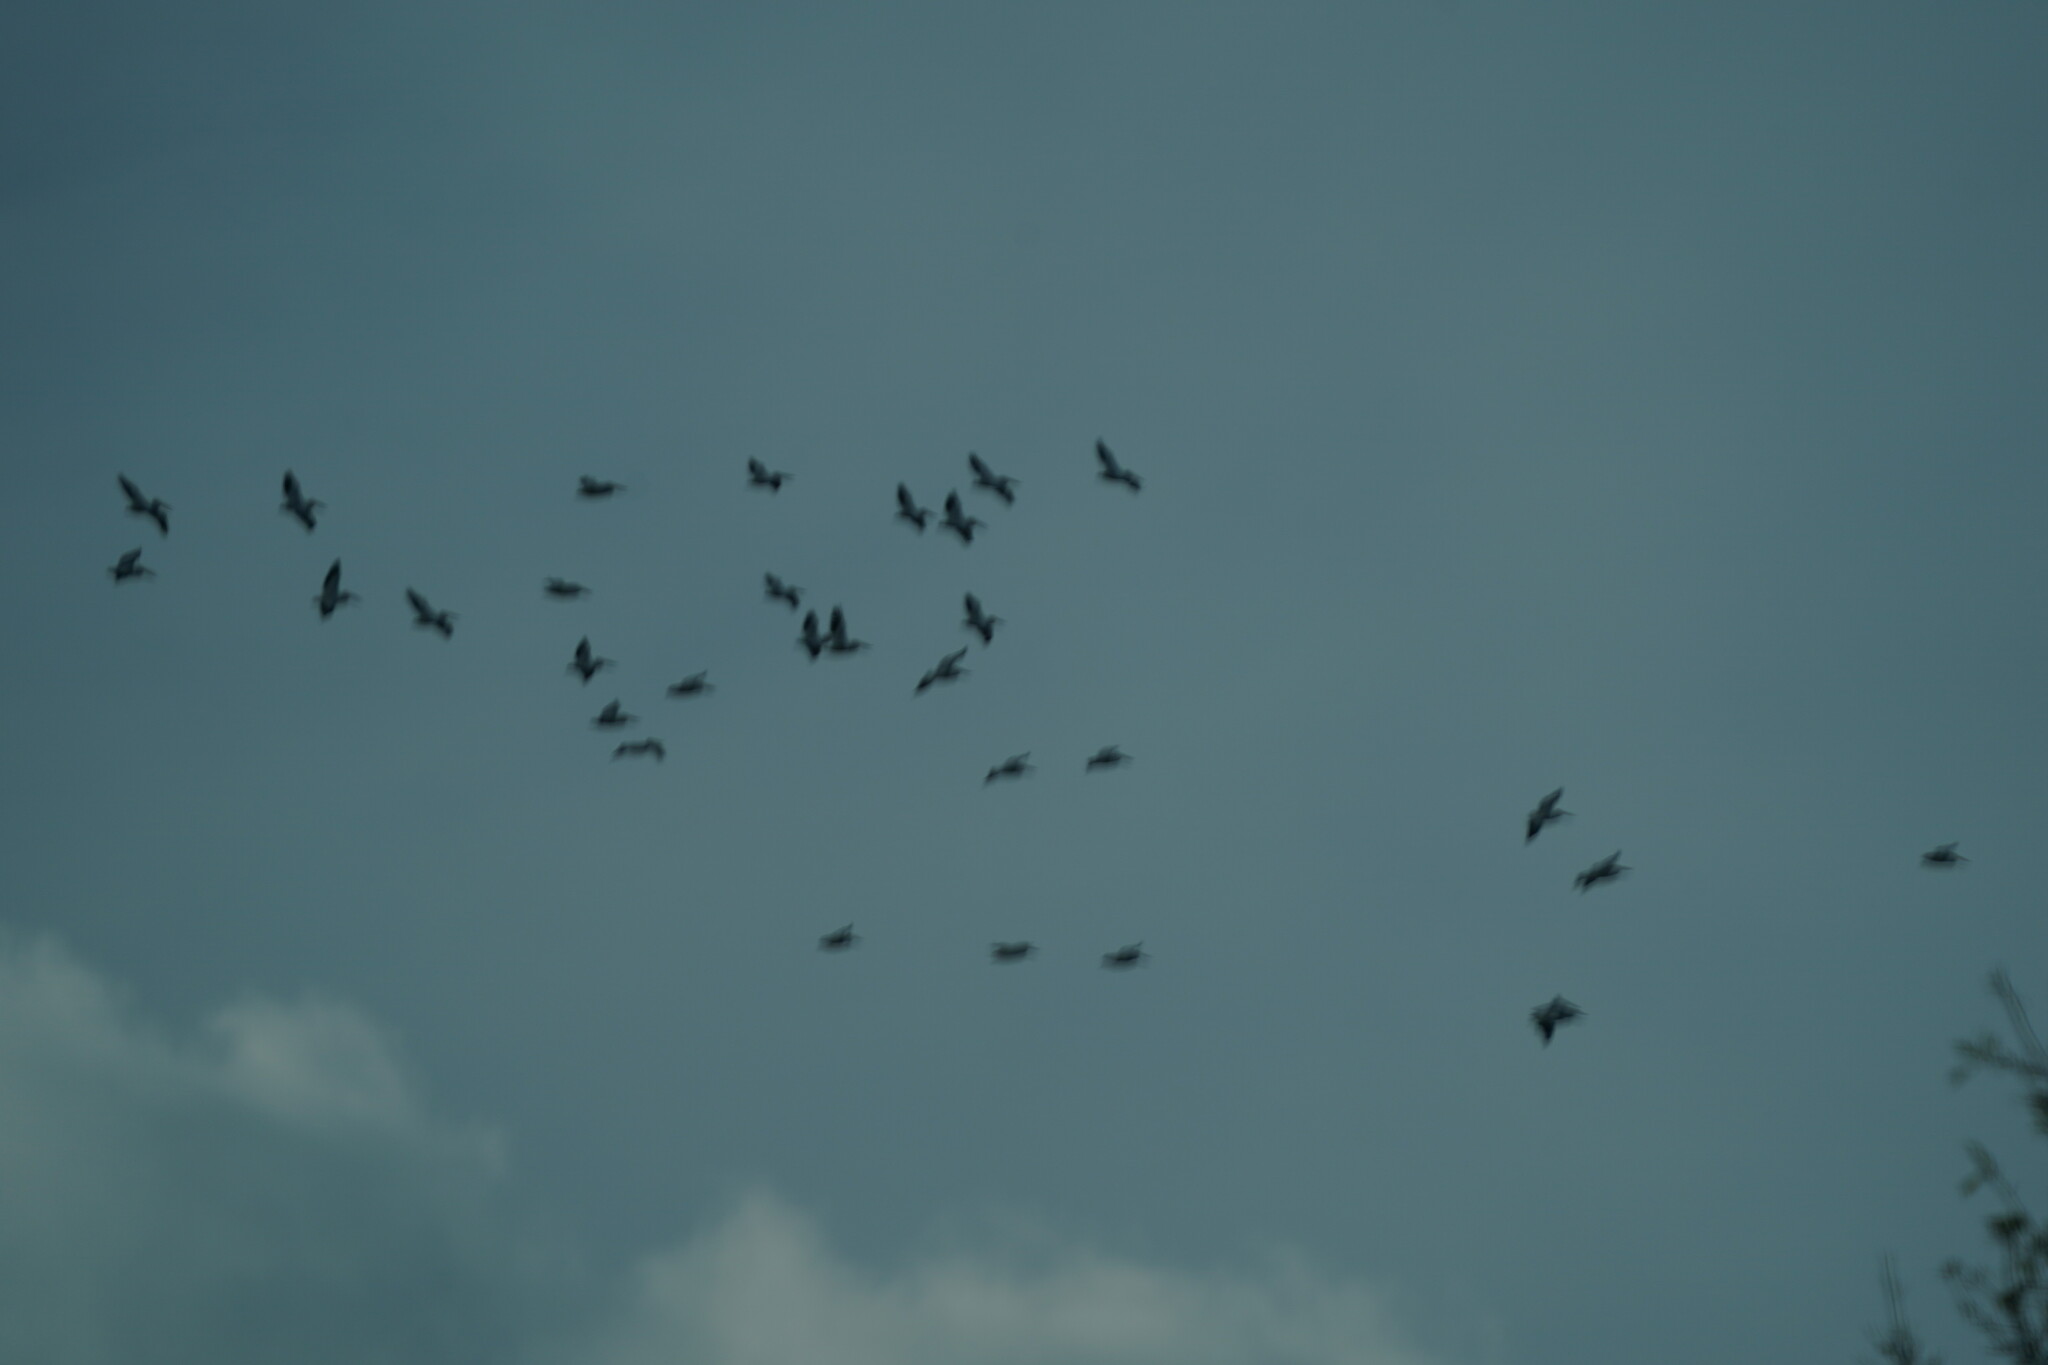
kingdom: Animalia
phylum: Chordata
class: Aves
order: Pelecaniformes
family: Pelecanidae
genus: Pelecanus
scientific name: Pelecanus erythrorhynchos
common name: American white pelican
